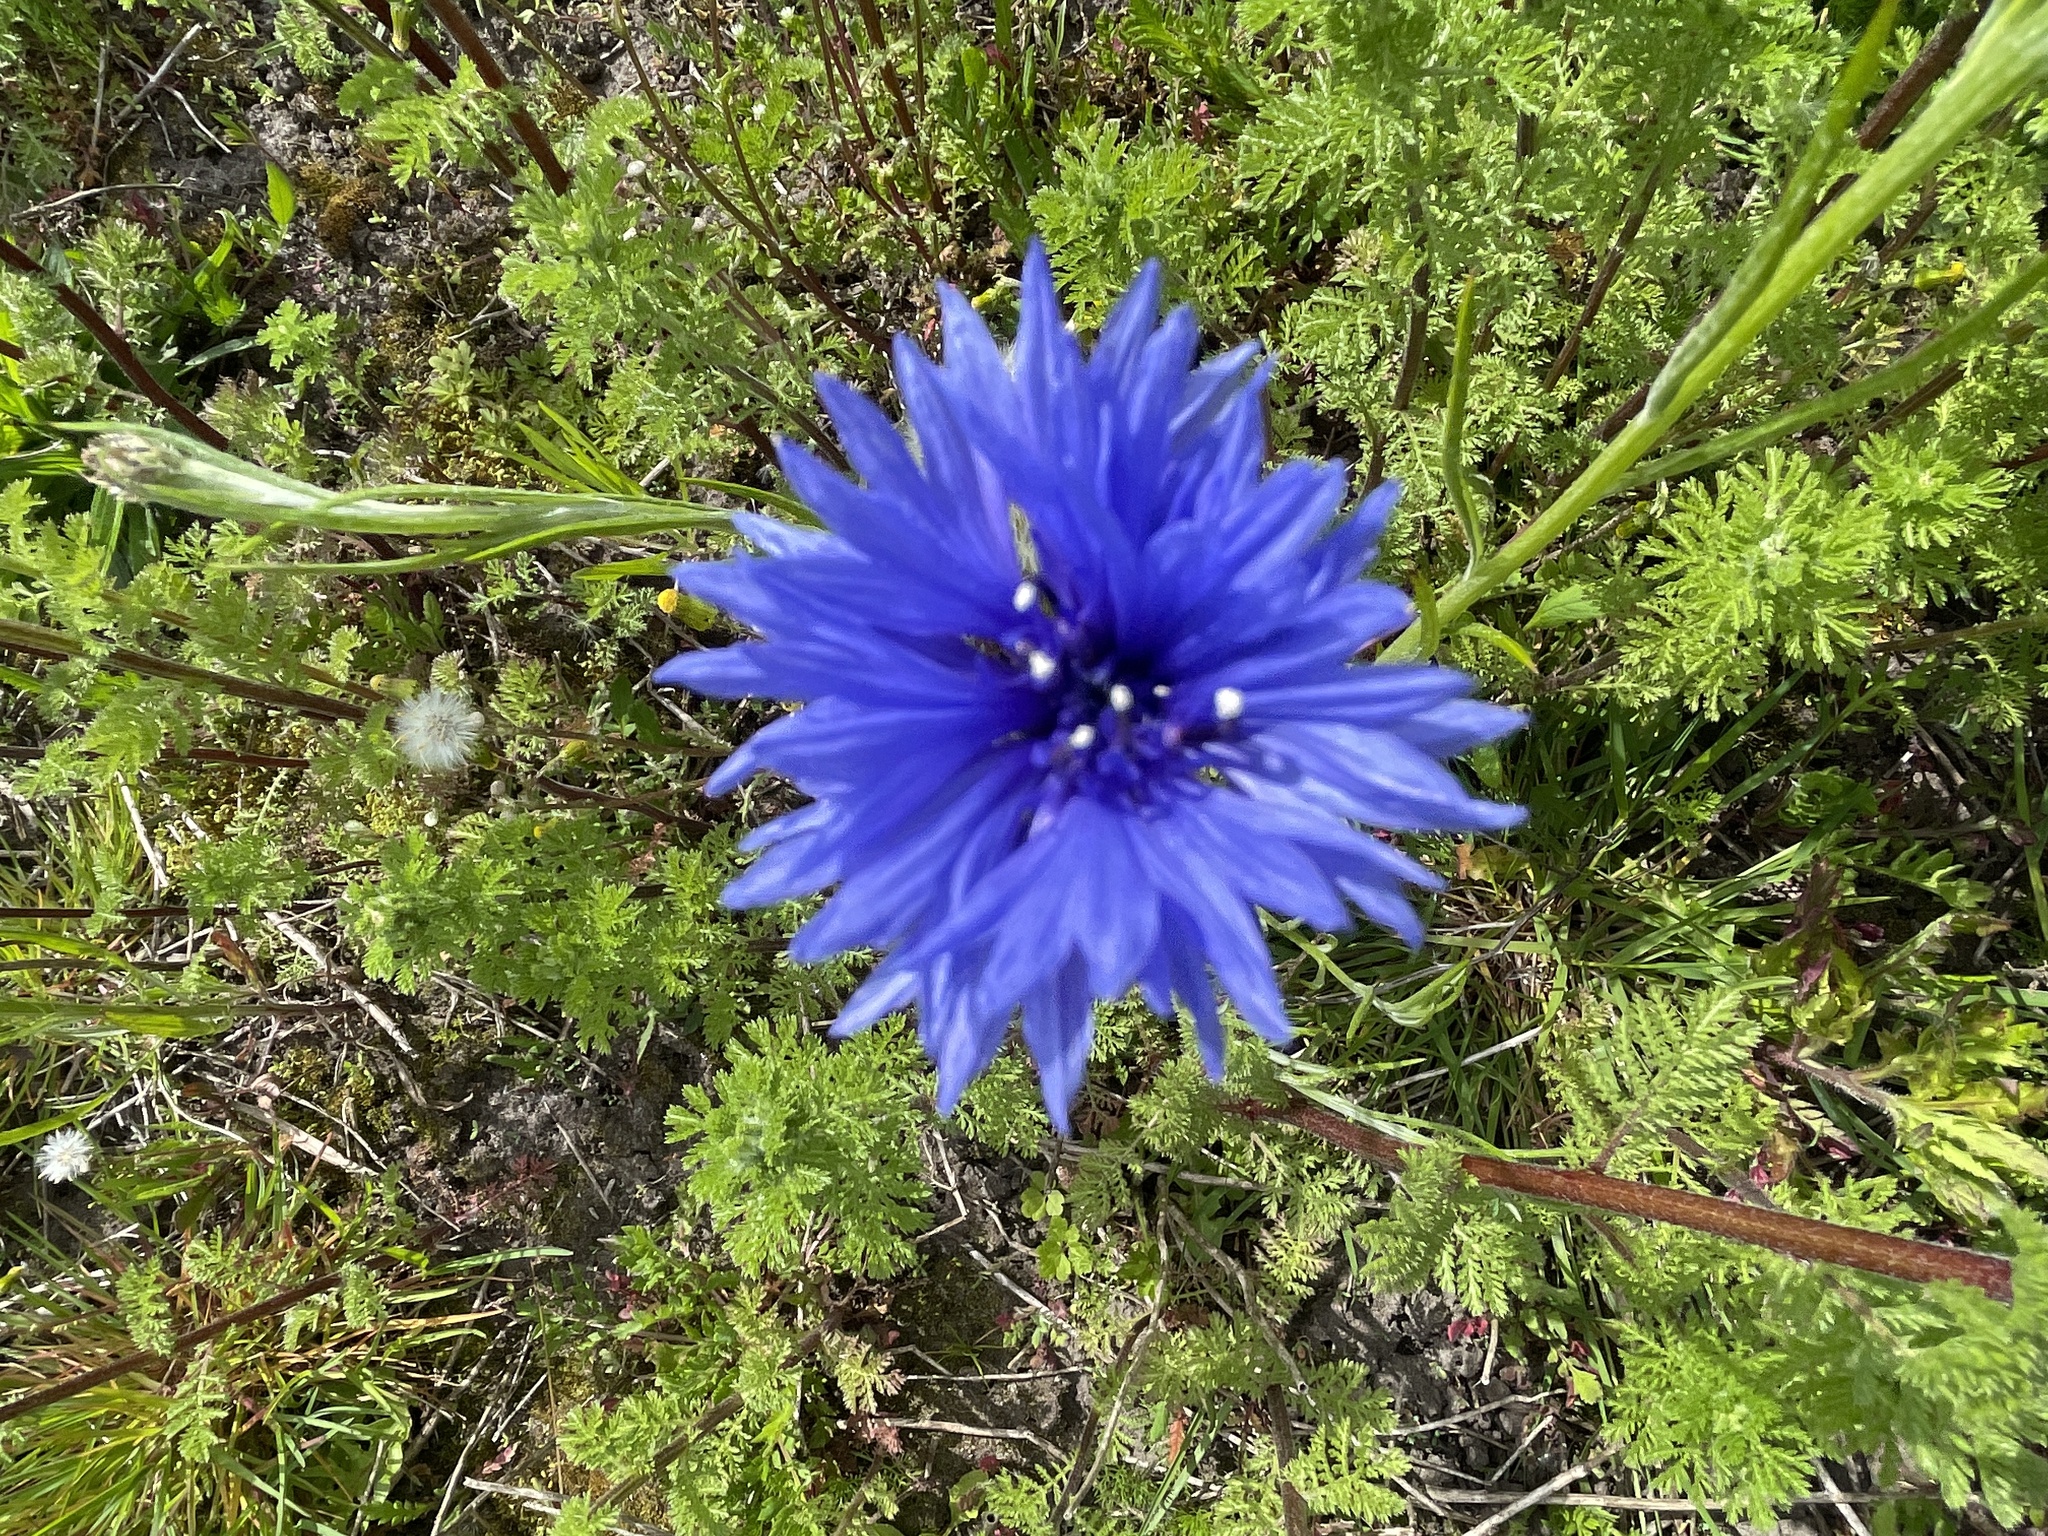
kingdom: Plantae
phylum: Tracheophyta
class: Magnoliopsida
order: Asterales
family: Asteraceae
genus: Centaurea
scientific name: Centaurea cyanus
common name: Cornflower
